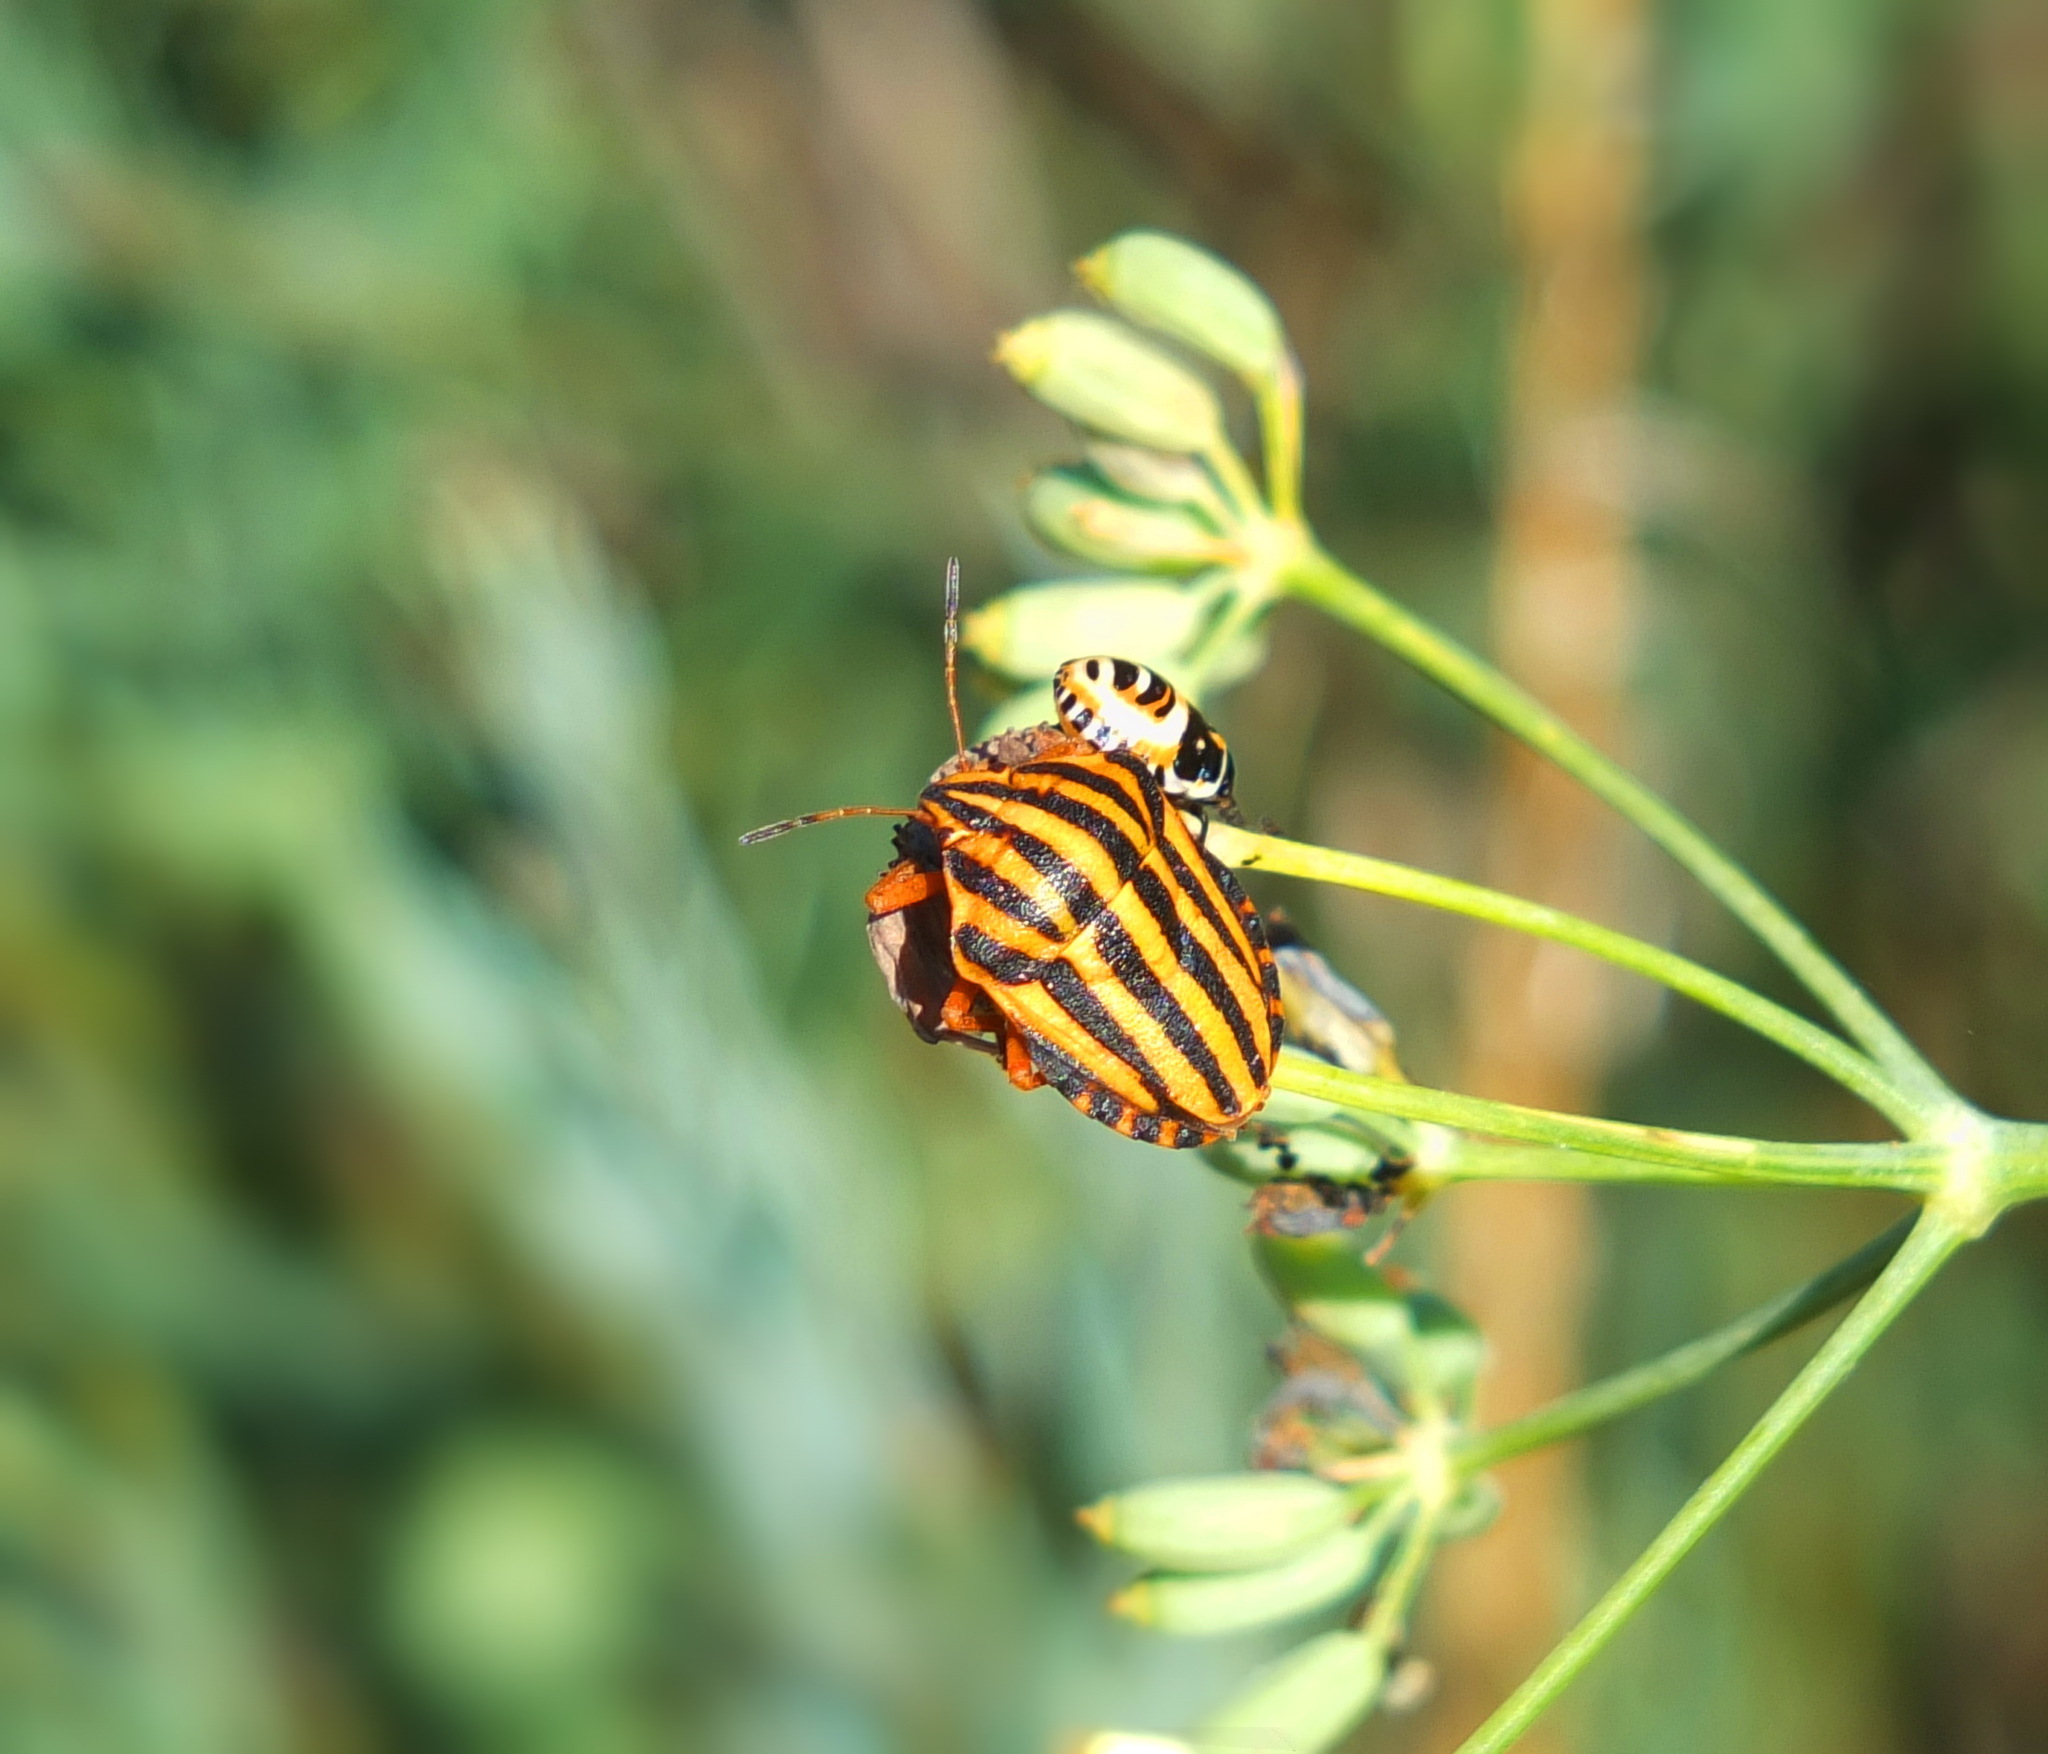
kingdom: Animalia
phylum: Arthropoda
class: Insecta
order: Hemiptera
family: Pentatomidae
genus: Graphosoma
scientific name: Graphosoma lineatum
